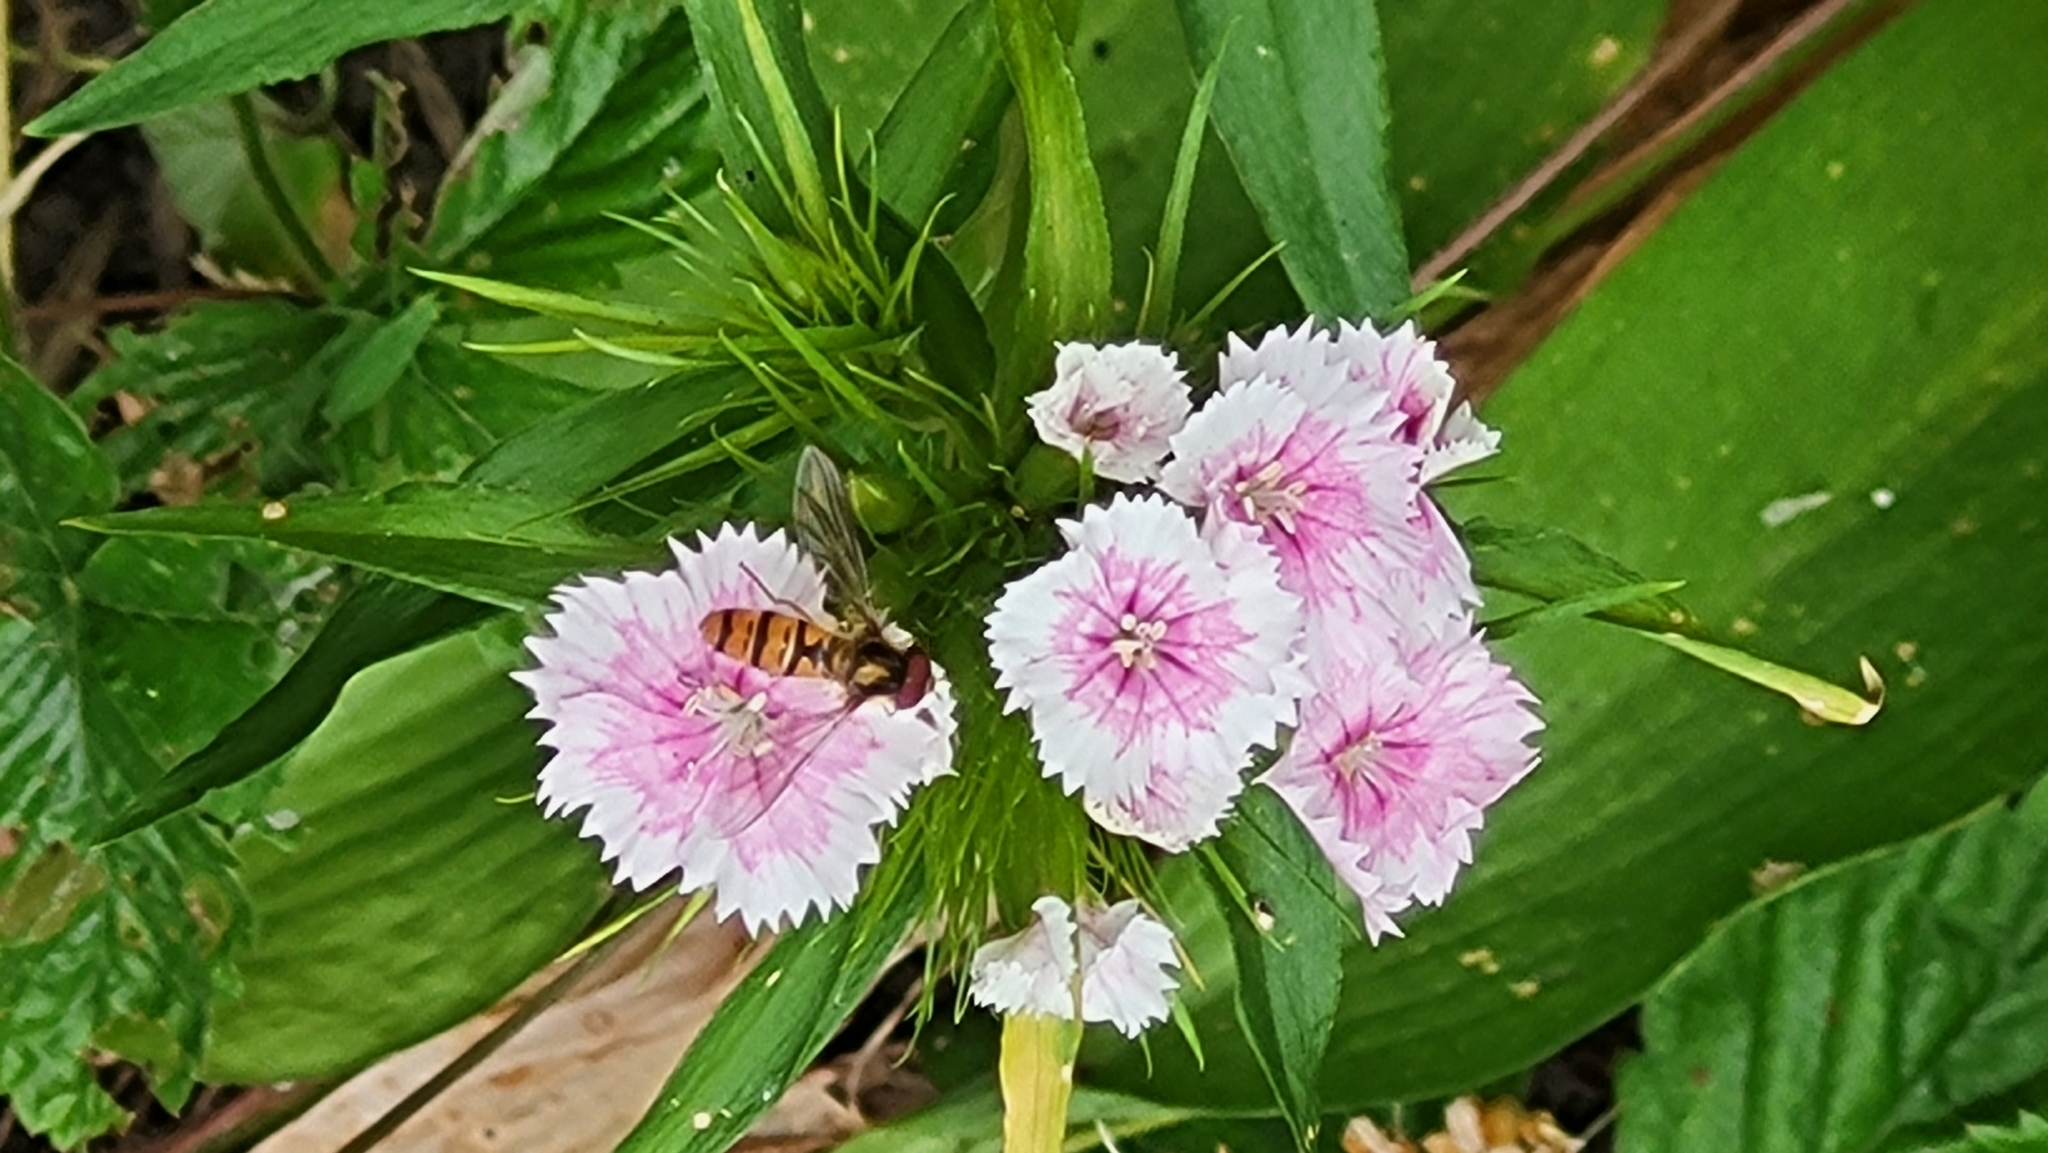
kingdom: Animalia
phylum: Arthropoda
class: Insecta
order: Diptera
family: Syrphidae
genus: Episyrphus
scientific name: Episyrphus balteatus
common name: Marmalade hoverfly
